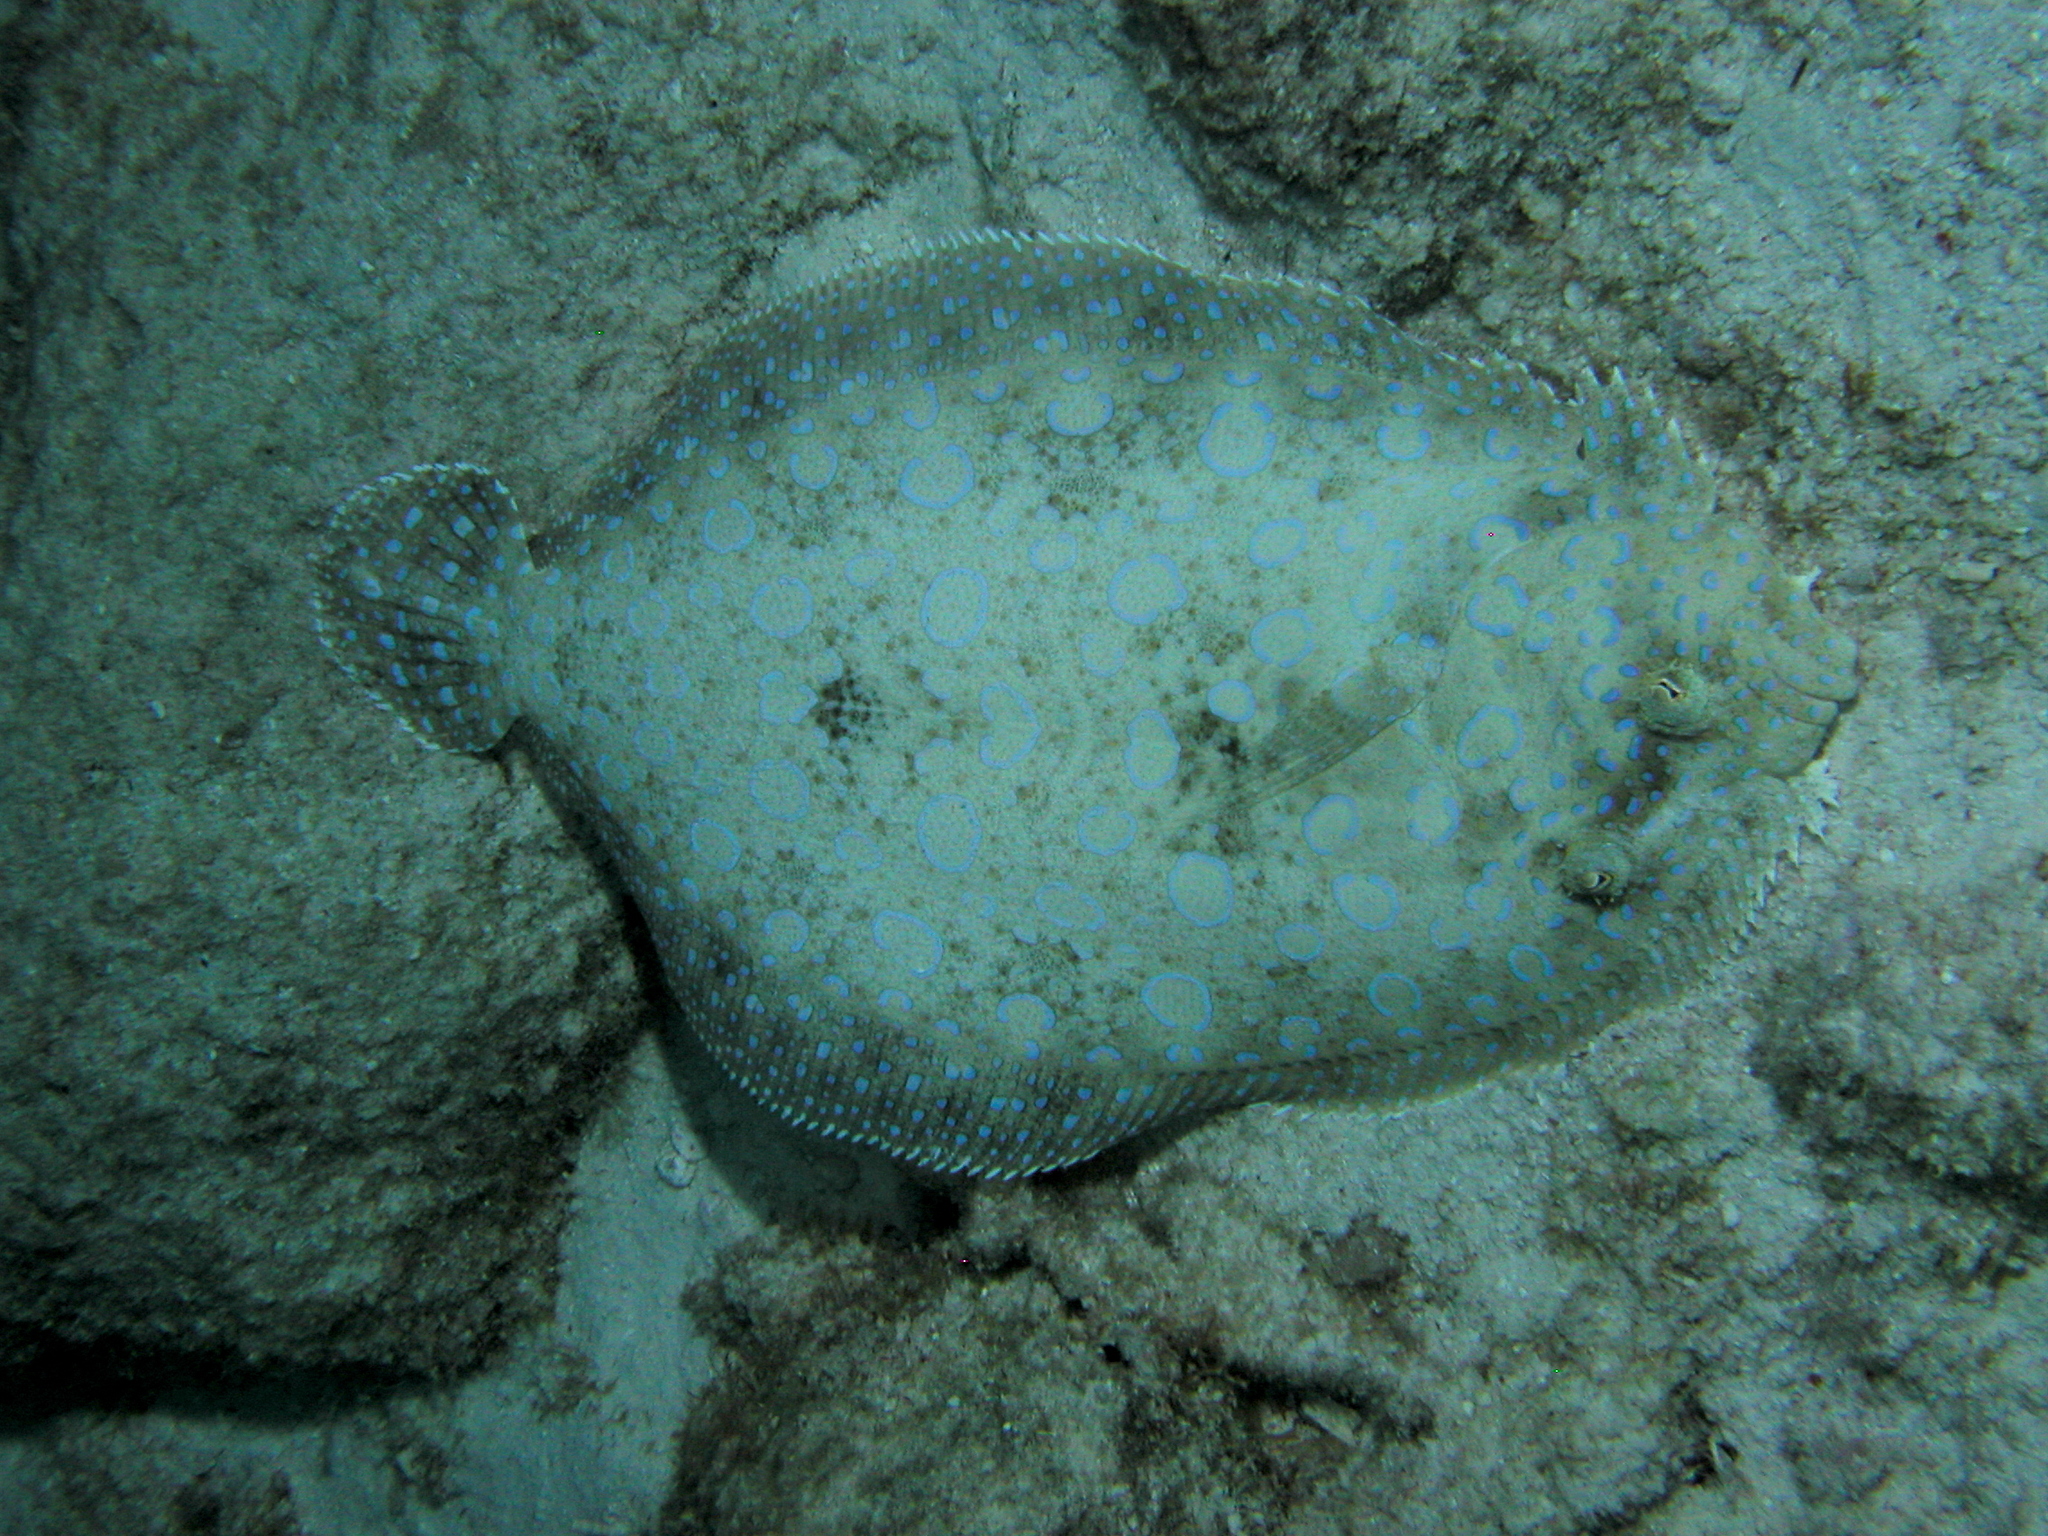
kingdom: Animalia
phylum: Chordata
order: Pleuronectiformes
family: Bothidae
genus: Bothus
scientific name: Bothus lunatus
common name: Peacock flounder
